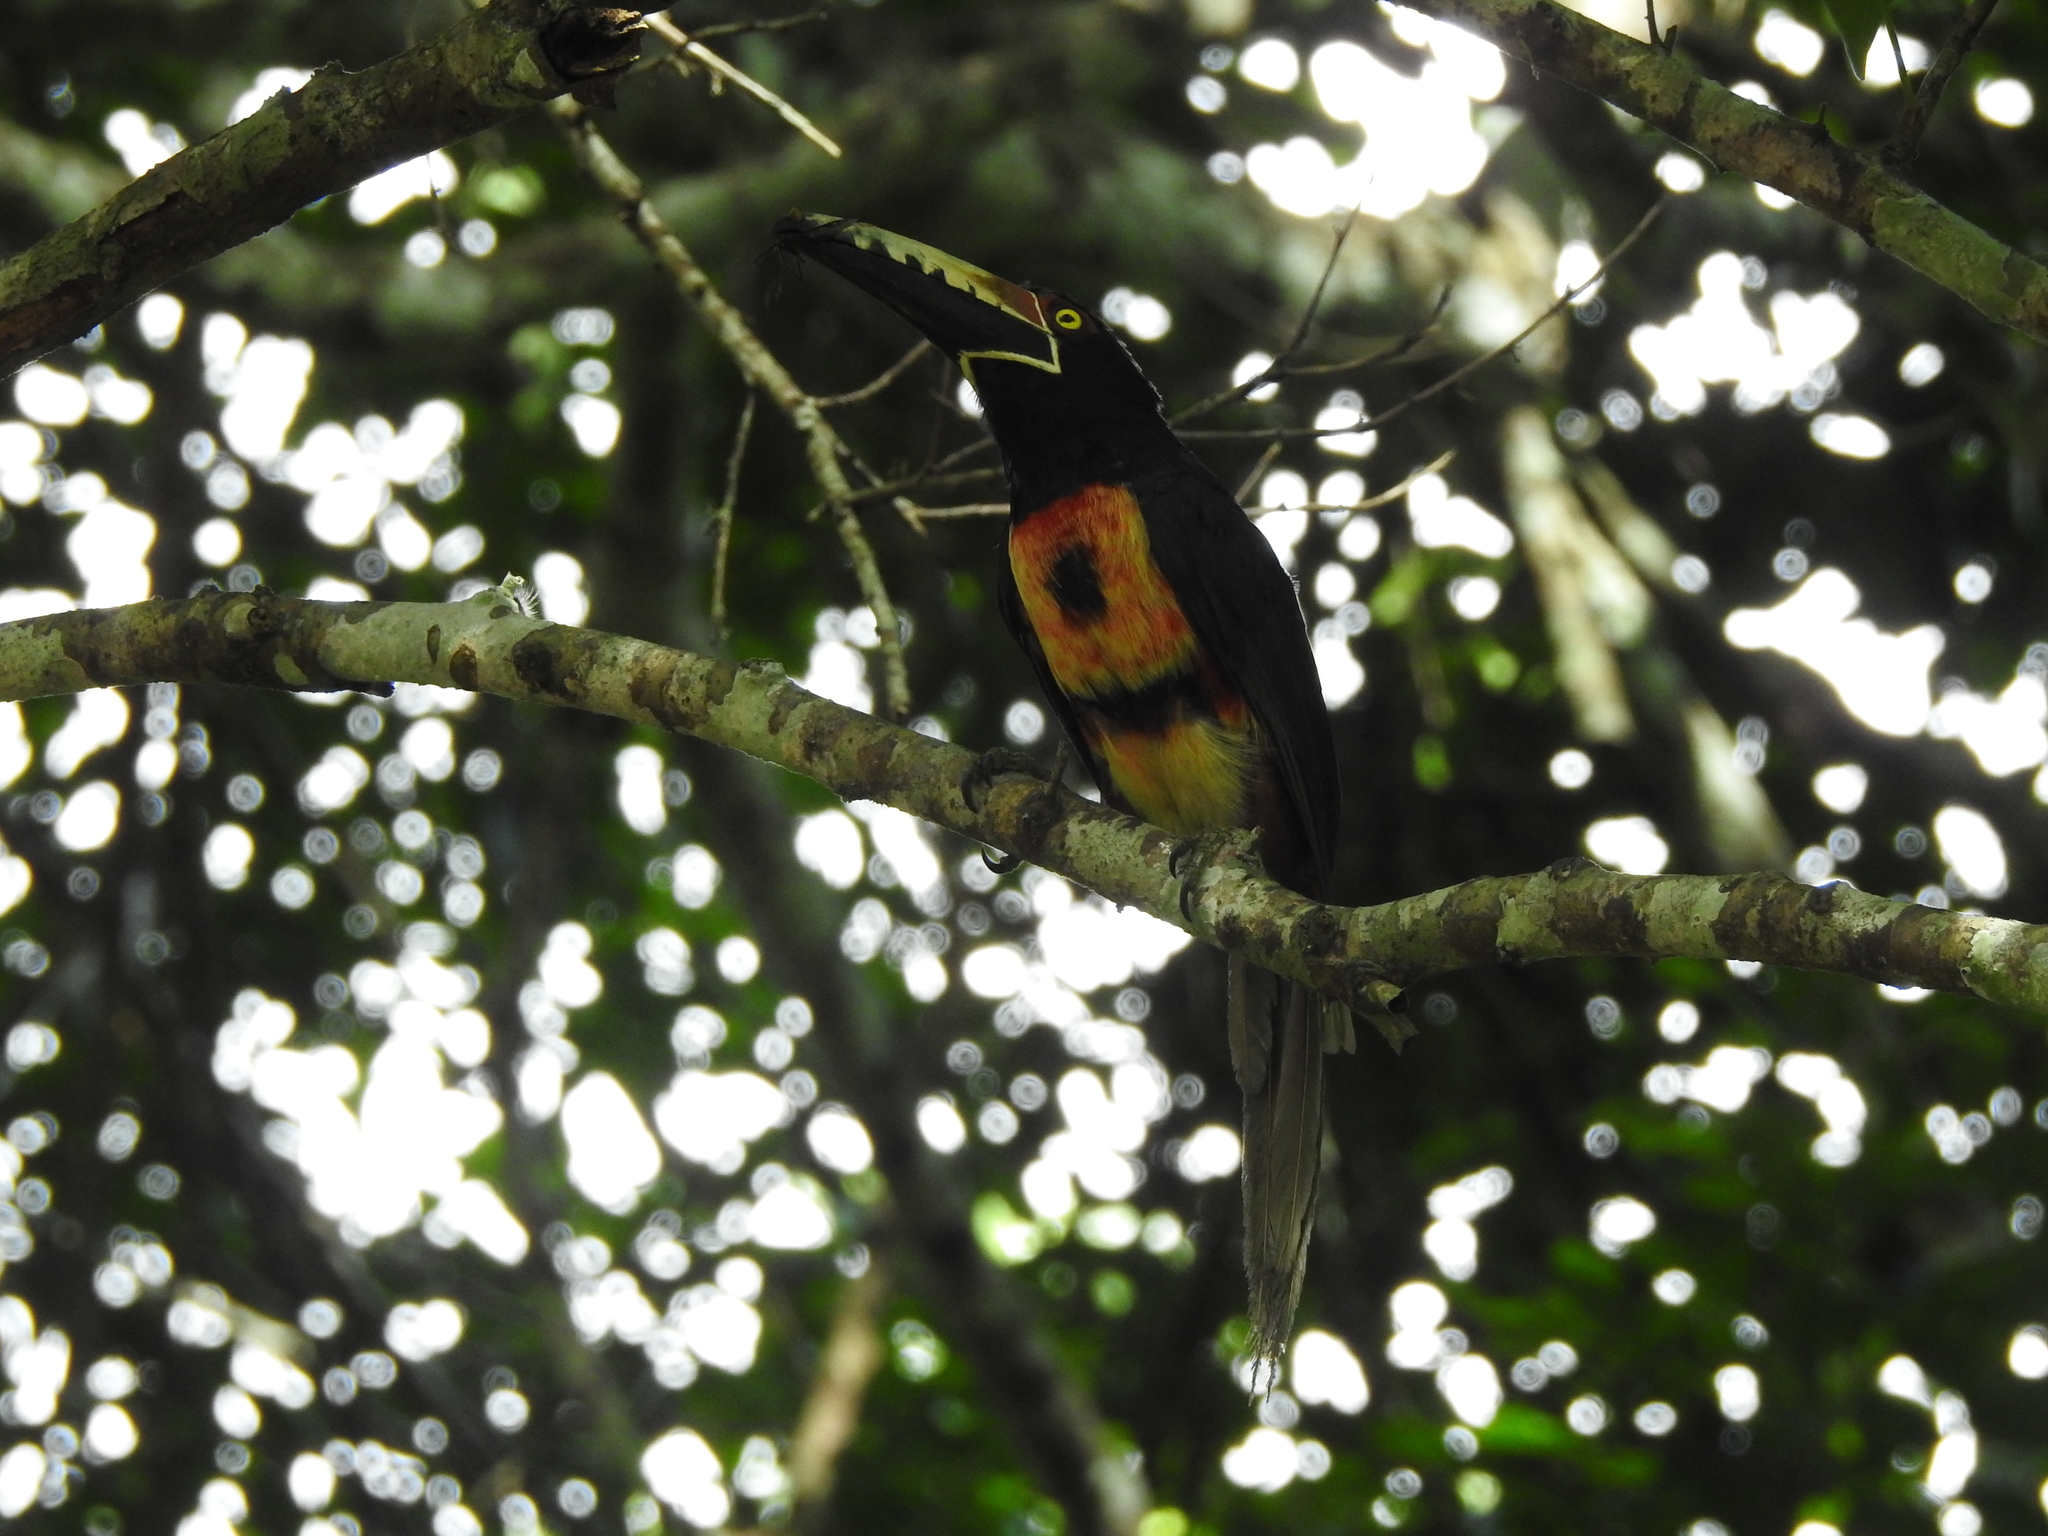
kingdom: Animalia
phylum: Chordata
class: Aves
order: Piciformes
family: Ramphastidae
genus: Pteroglossus
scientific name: Pteroglossus torquatus
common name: Collared aracari
